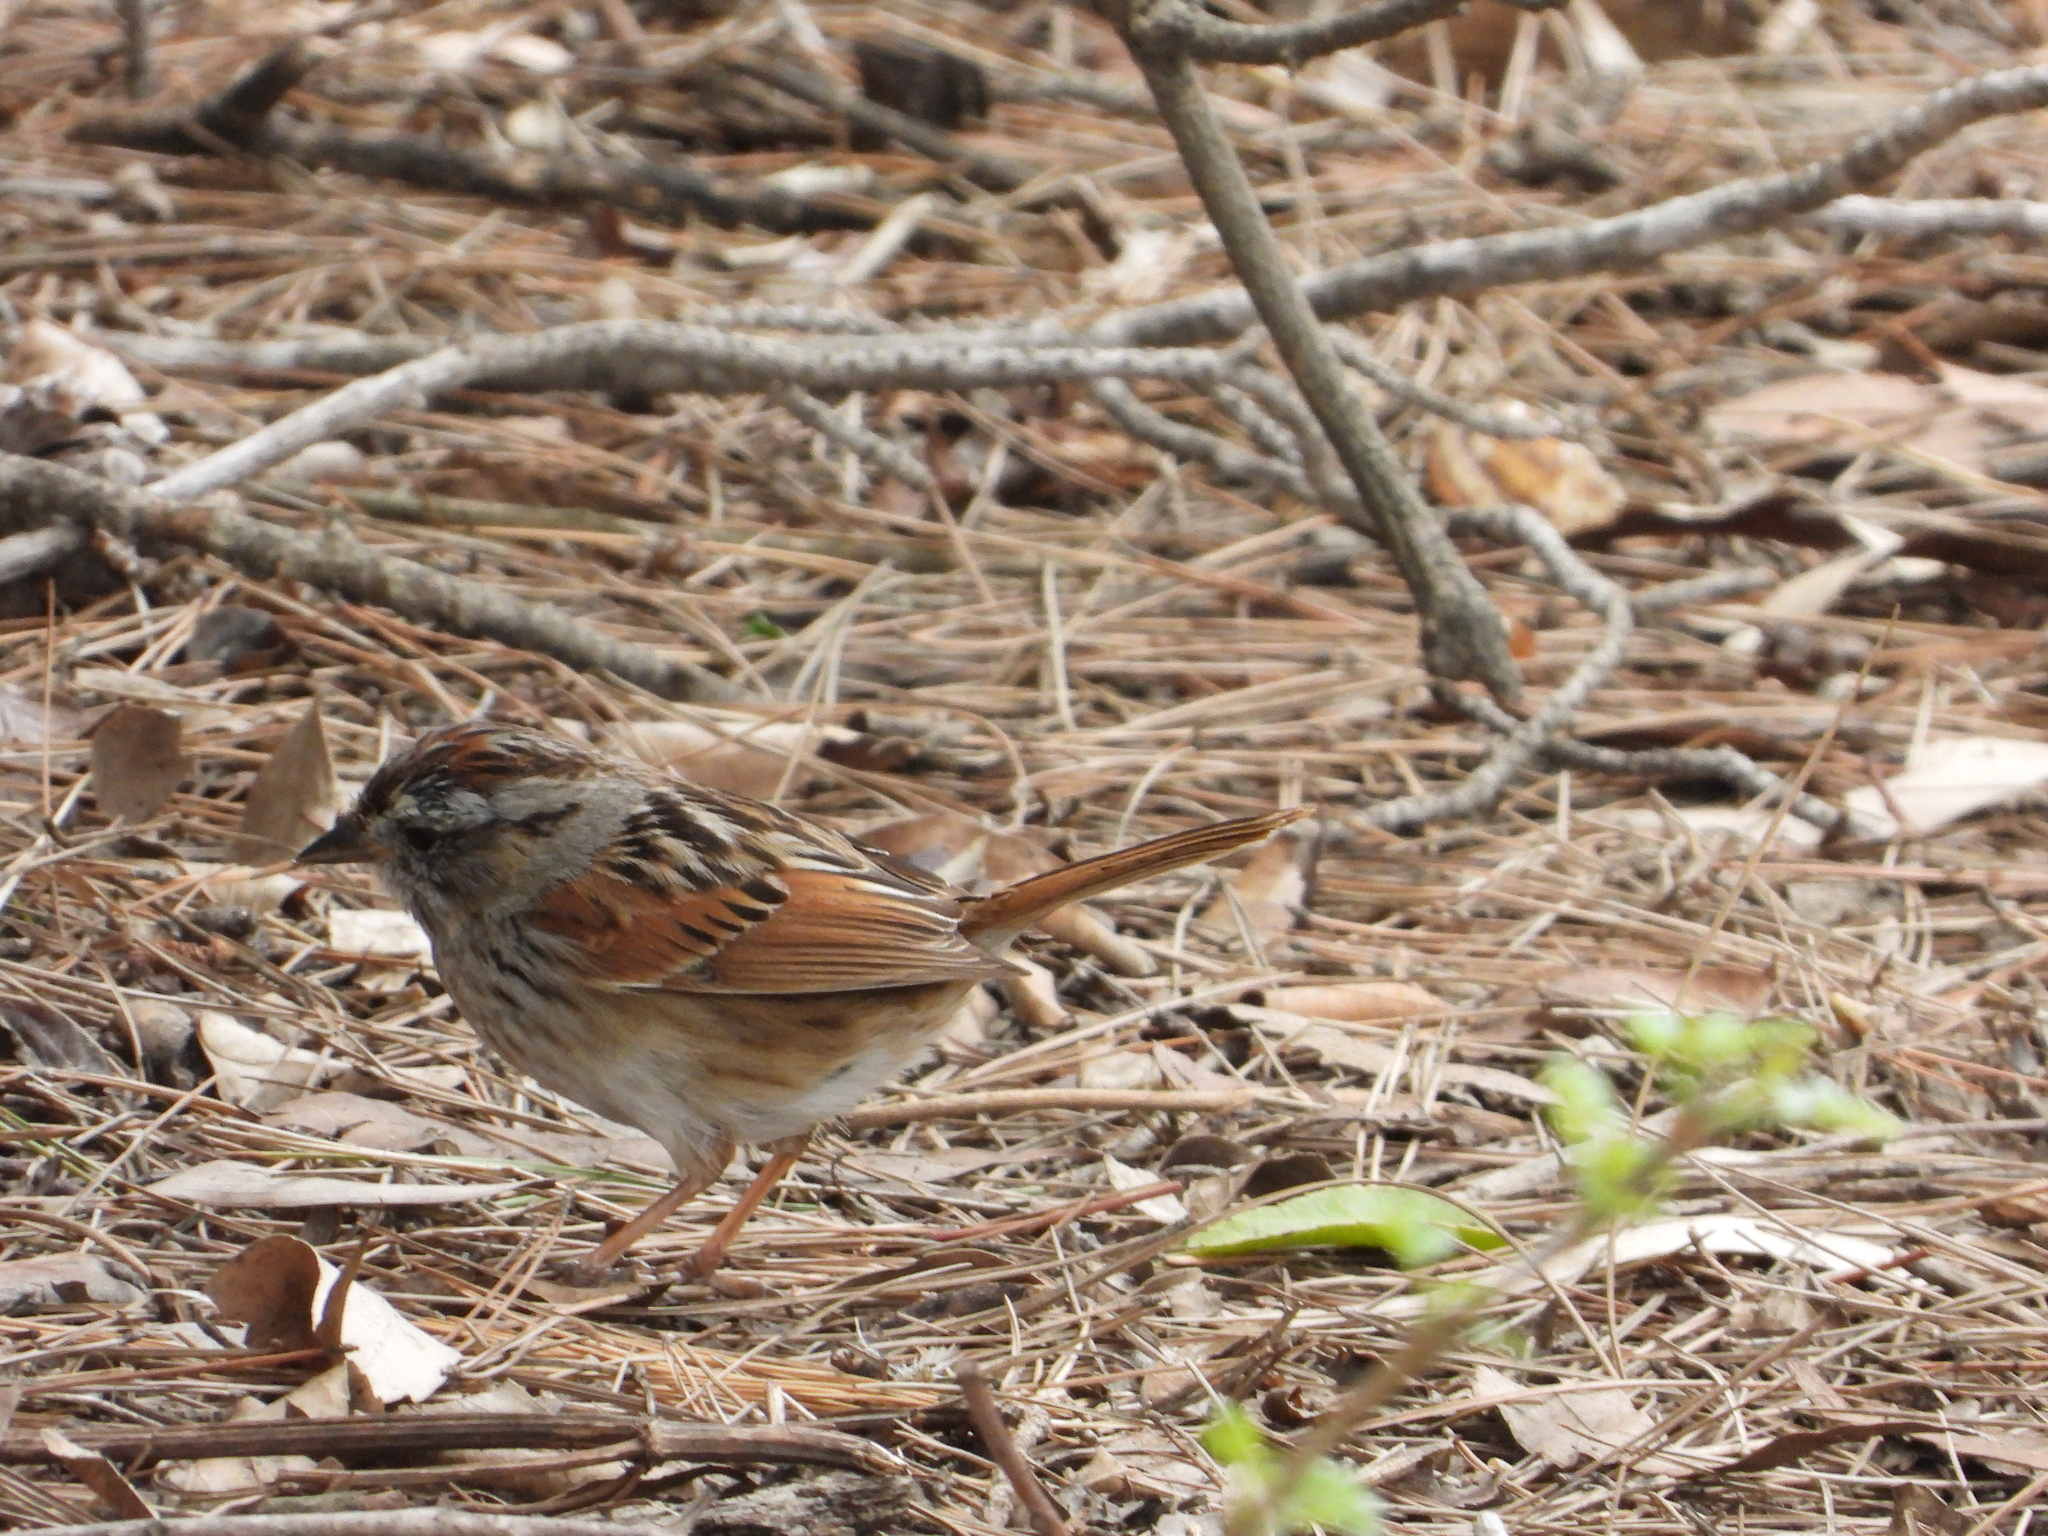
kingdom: Animalia
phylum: Chordata
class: Aves
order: Passeriformes
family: Passerellidae
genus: Melospiza
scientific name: Melospiza georgiana
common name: Swamp sparrow
